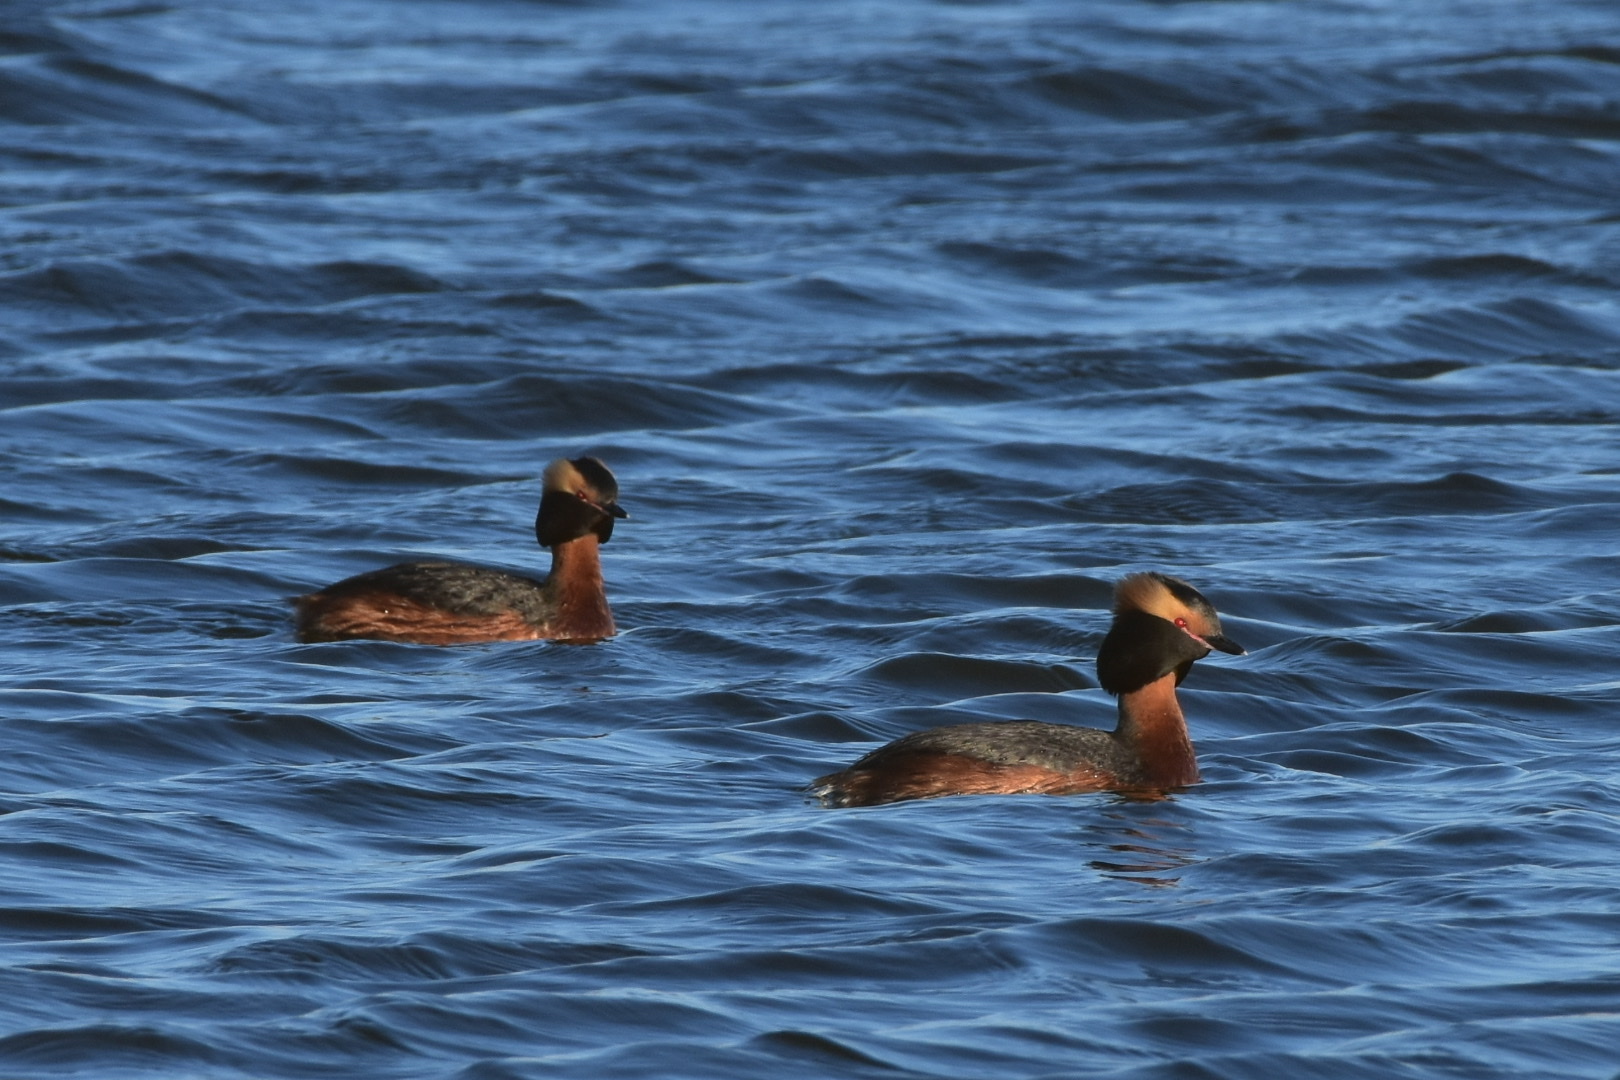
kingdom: Animalia
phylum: Chordata
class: Aves
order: Podicipediformes
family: Podicipedidae
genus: Podiceps
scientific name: Podiceps auritus
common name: Horned grebe
